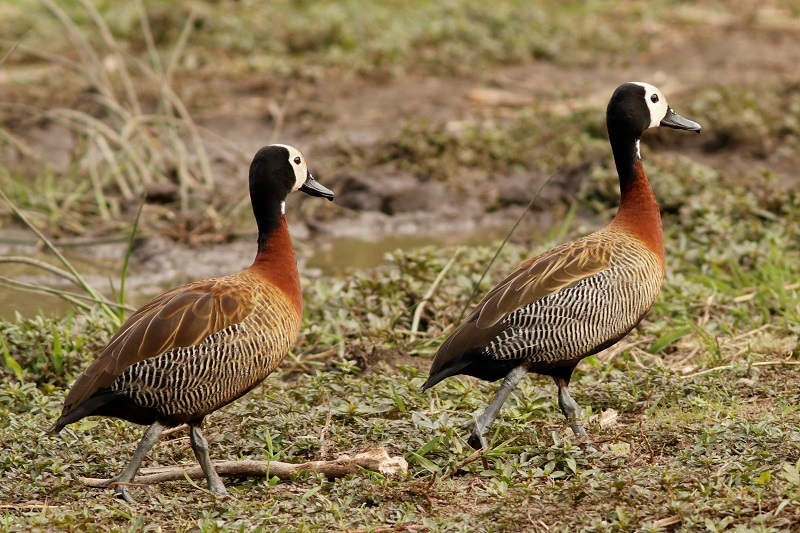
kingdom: Animalia
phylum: Chordata
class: Aves
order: Anseriformes
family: Anatidae
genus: Dendrocygna
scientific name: Dendrocygna viduata
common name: White-faced whistling duck
